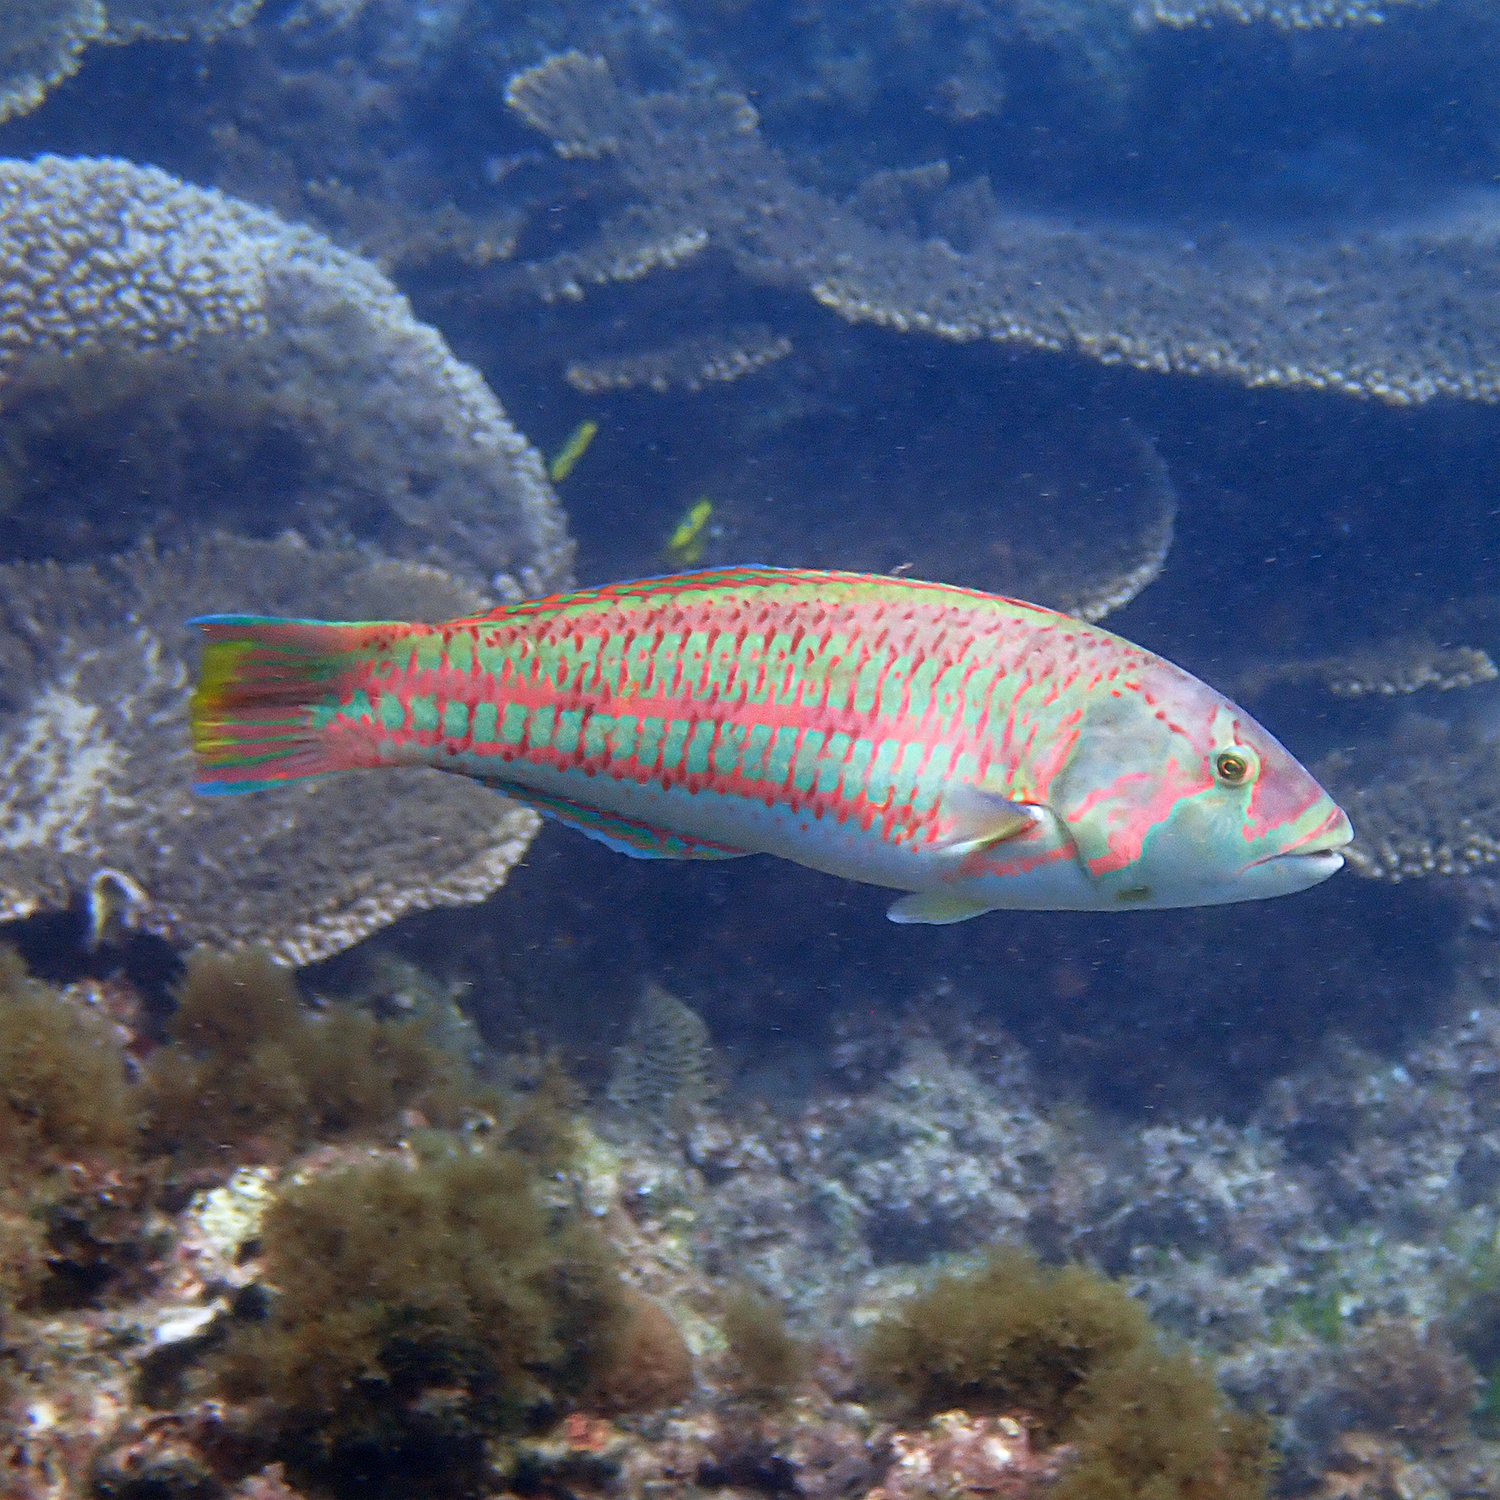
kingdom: Animalia
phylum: Chordata
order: Perciformes
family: Labridae
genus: Thalassoma
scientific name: Thalassoma purpureum
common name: Parrotfish
